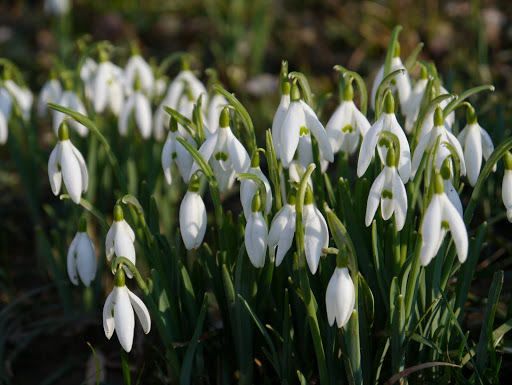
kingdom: Plantae
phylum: Tracheophyta
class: Liliopsida
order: Asparagales
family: Amaryllidaceae
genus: Galanthus
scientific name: Galanthus nivalis
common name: Snowdrop
